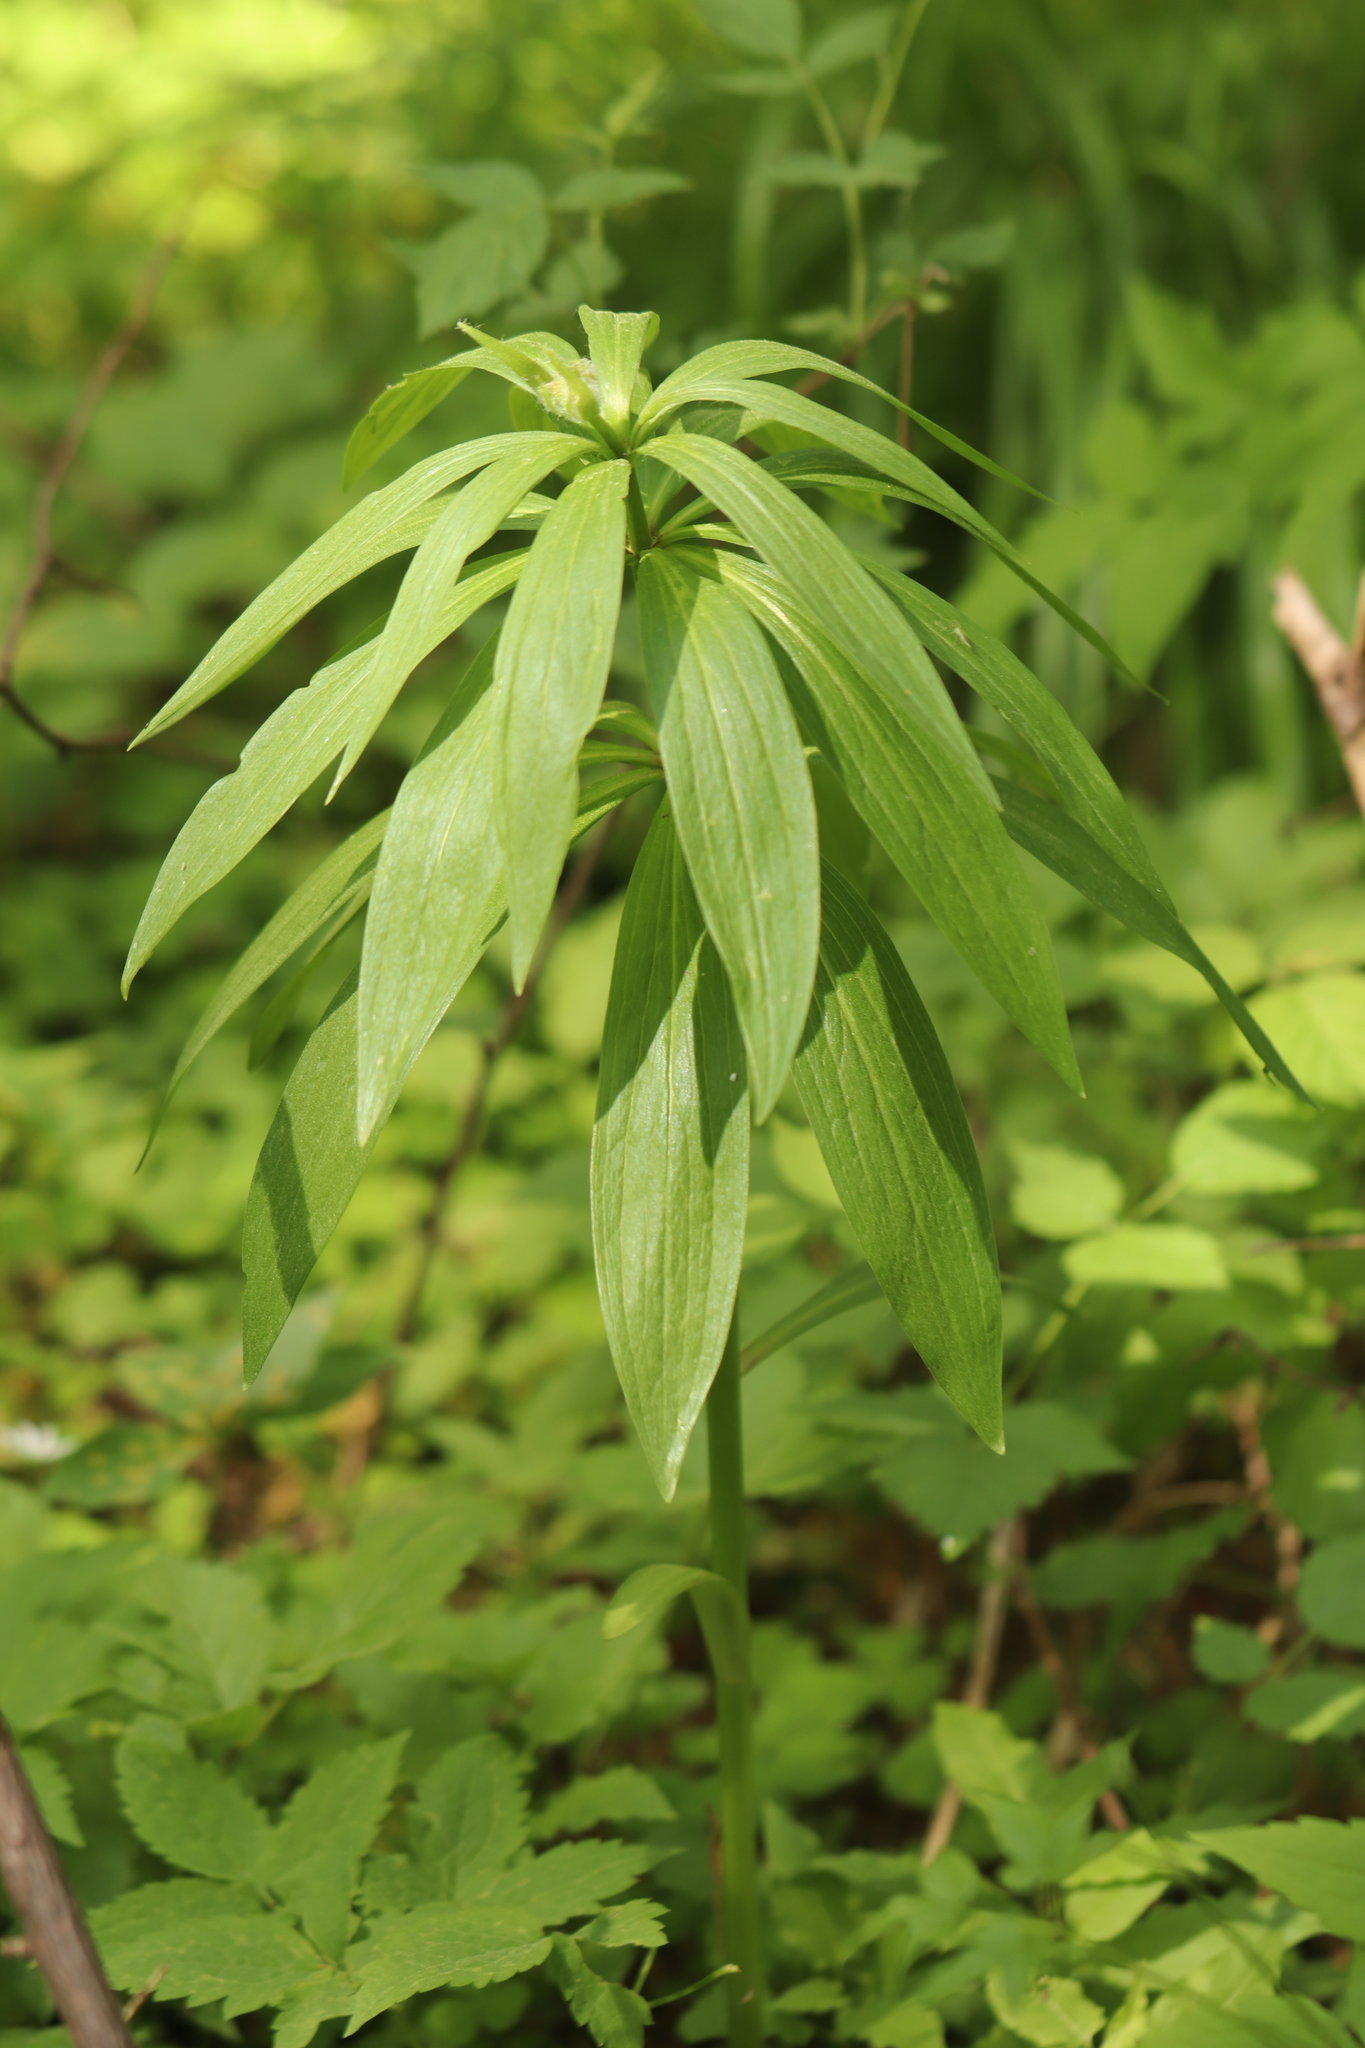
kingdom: Plantae
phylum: Tracheophyta
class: Liliopsida
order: Liliales
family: Liliaceae
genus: Lilium
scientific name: Lilium martagon
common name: Martagon lily
